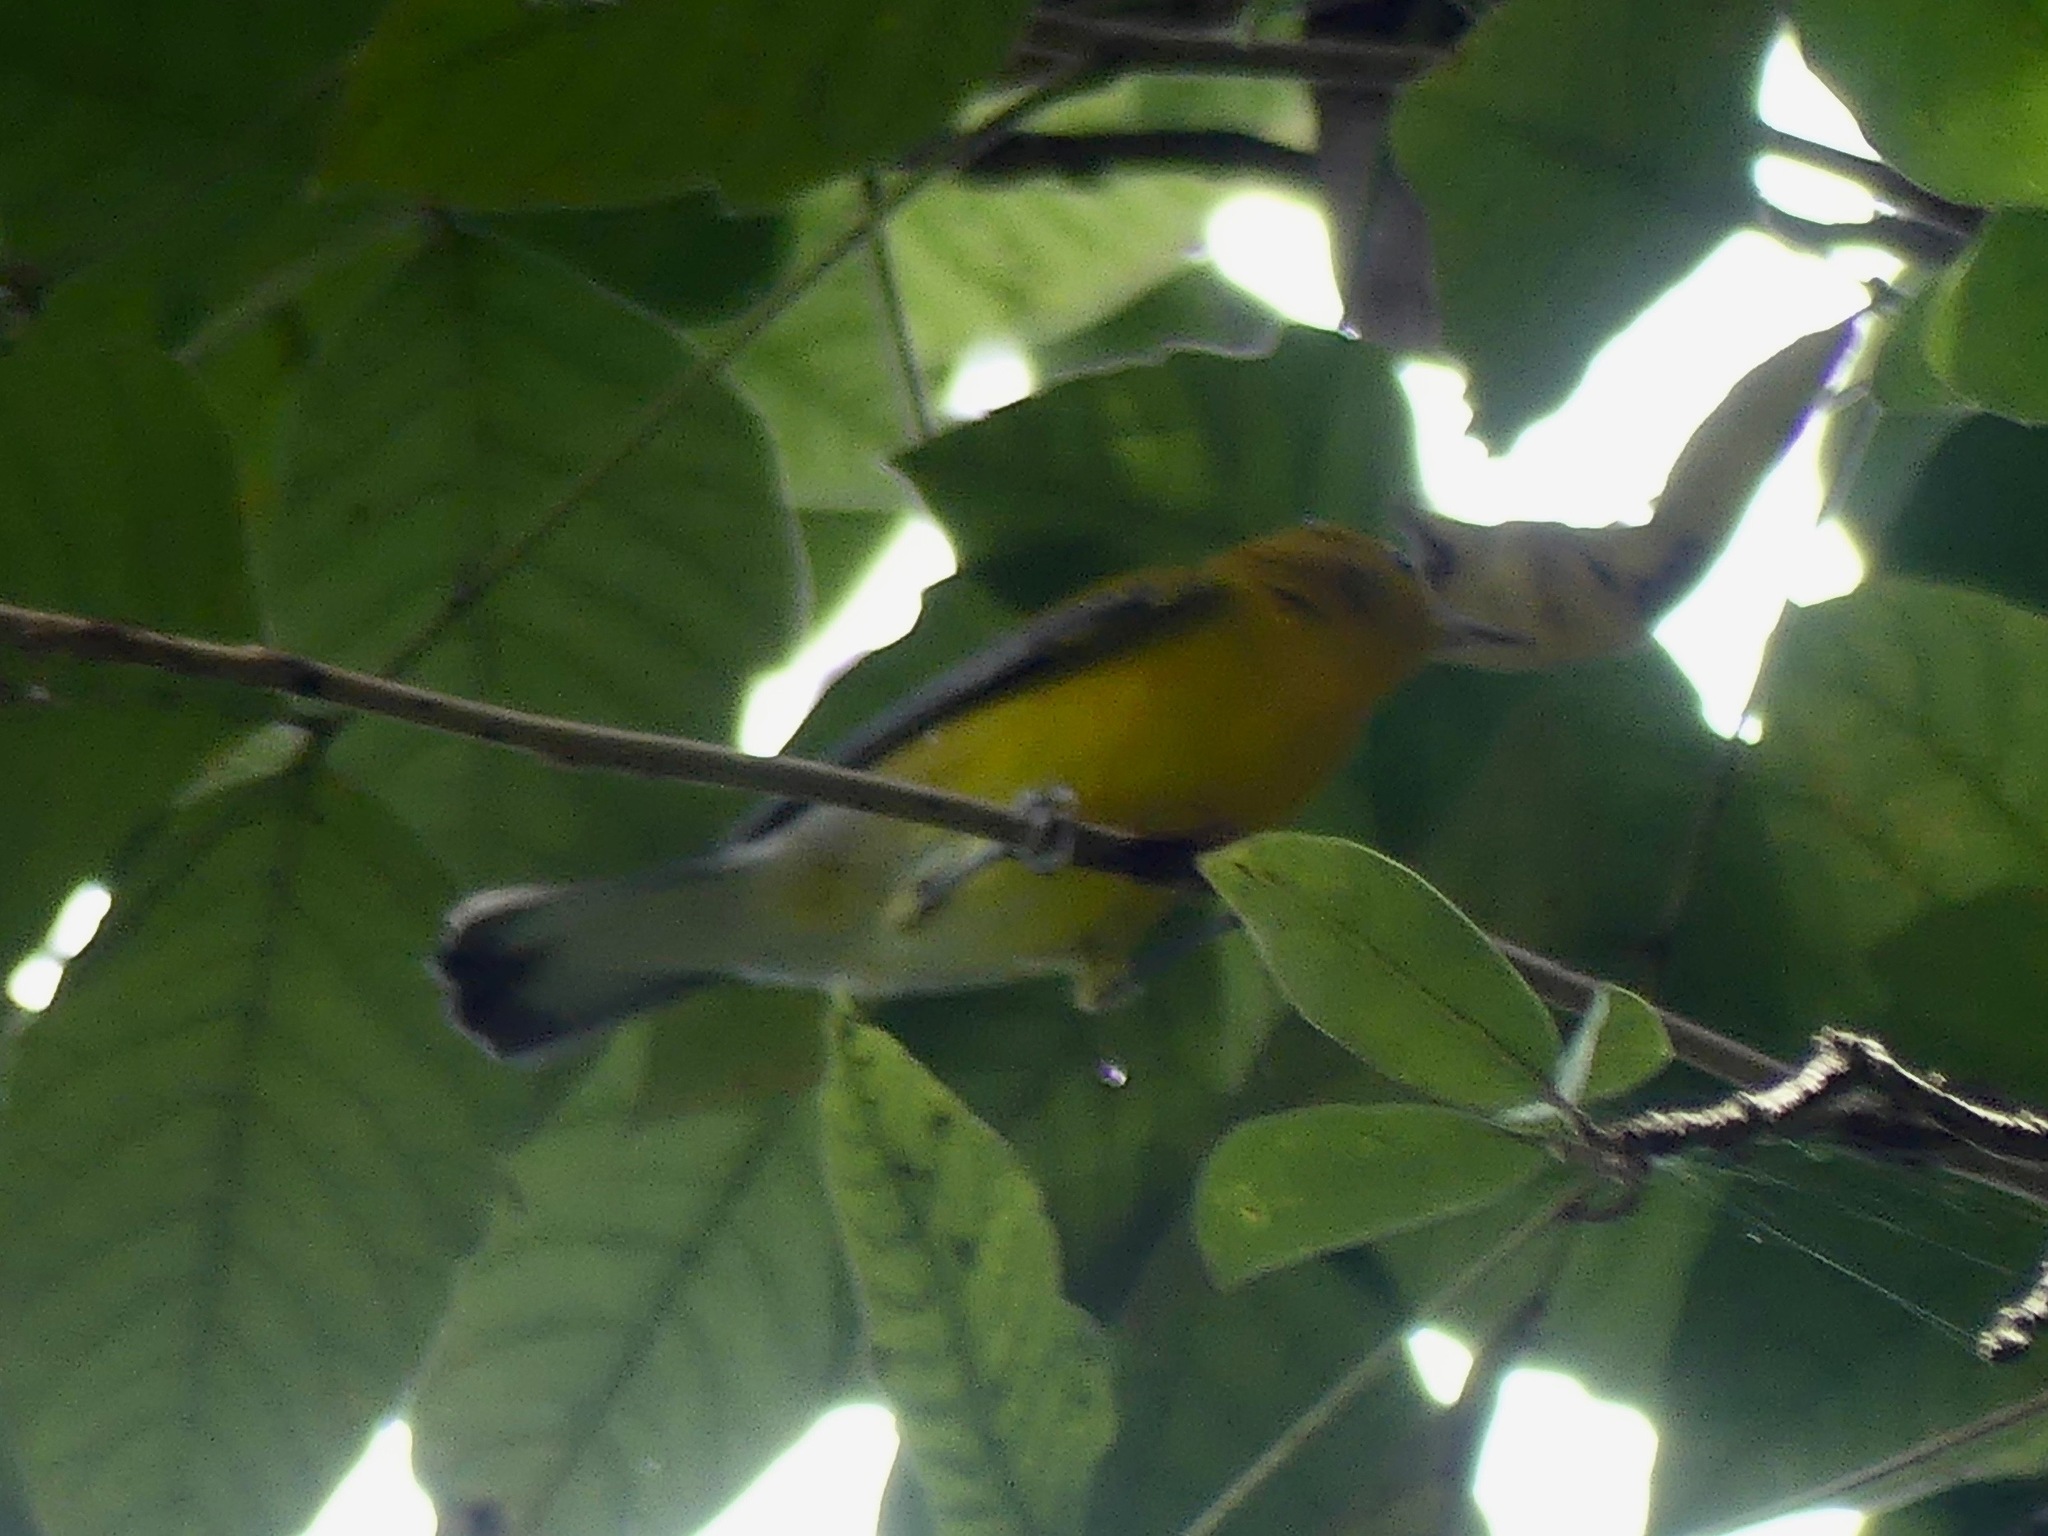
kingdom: Animalia
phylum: Chordata
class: Aves
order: Passeriformes
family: Parulidae
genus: Protonotaria
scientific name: Protonotaria citrea
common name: Prothonotary warbler
